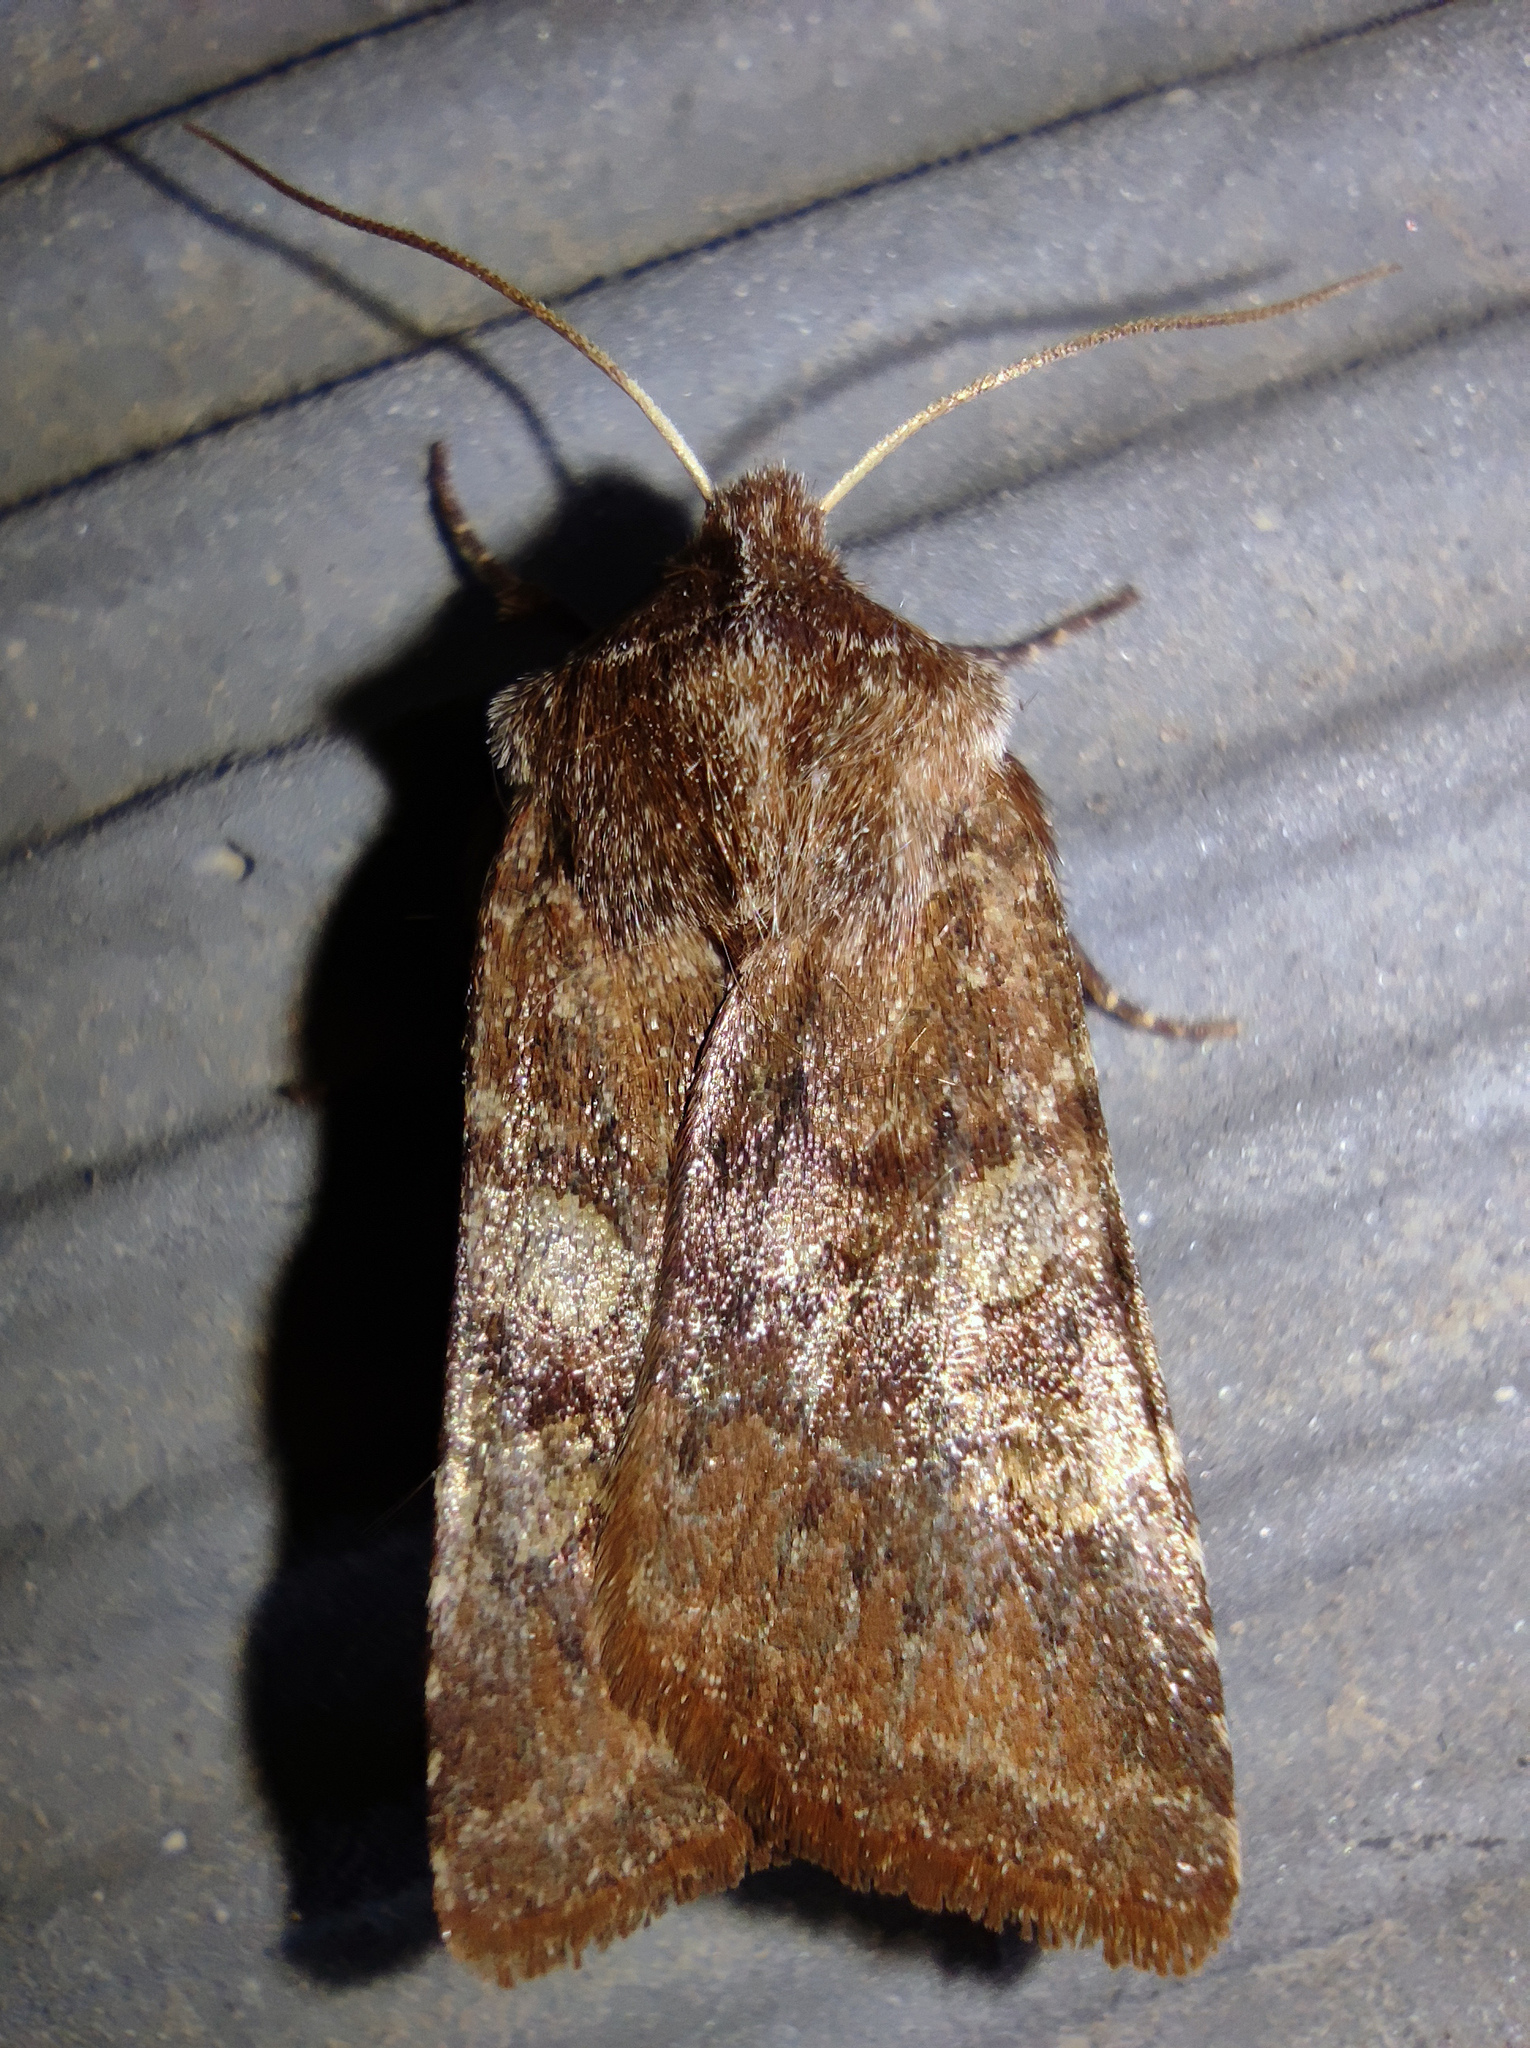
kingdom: Animalia
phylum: Arthropoda
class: Insecta
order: Lepidoptera
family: Noctuidae
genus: Cerastis
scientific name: Cerastis leucographa
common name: White-marked
